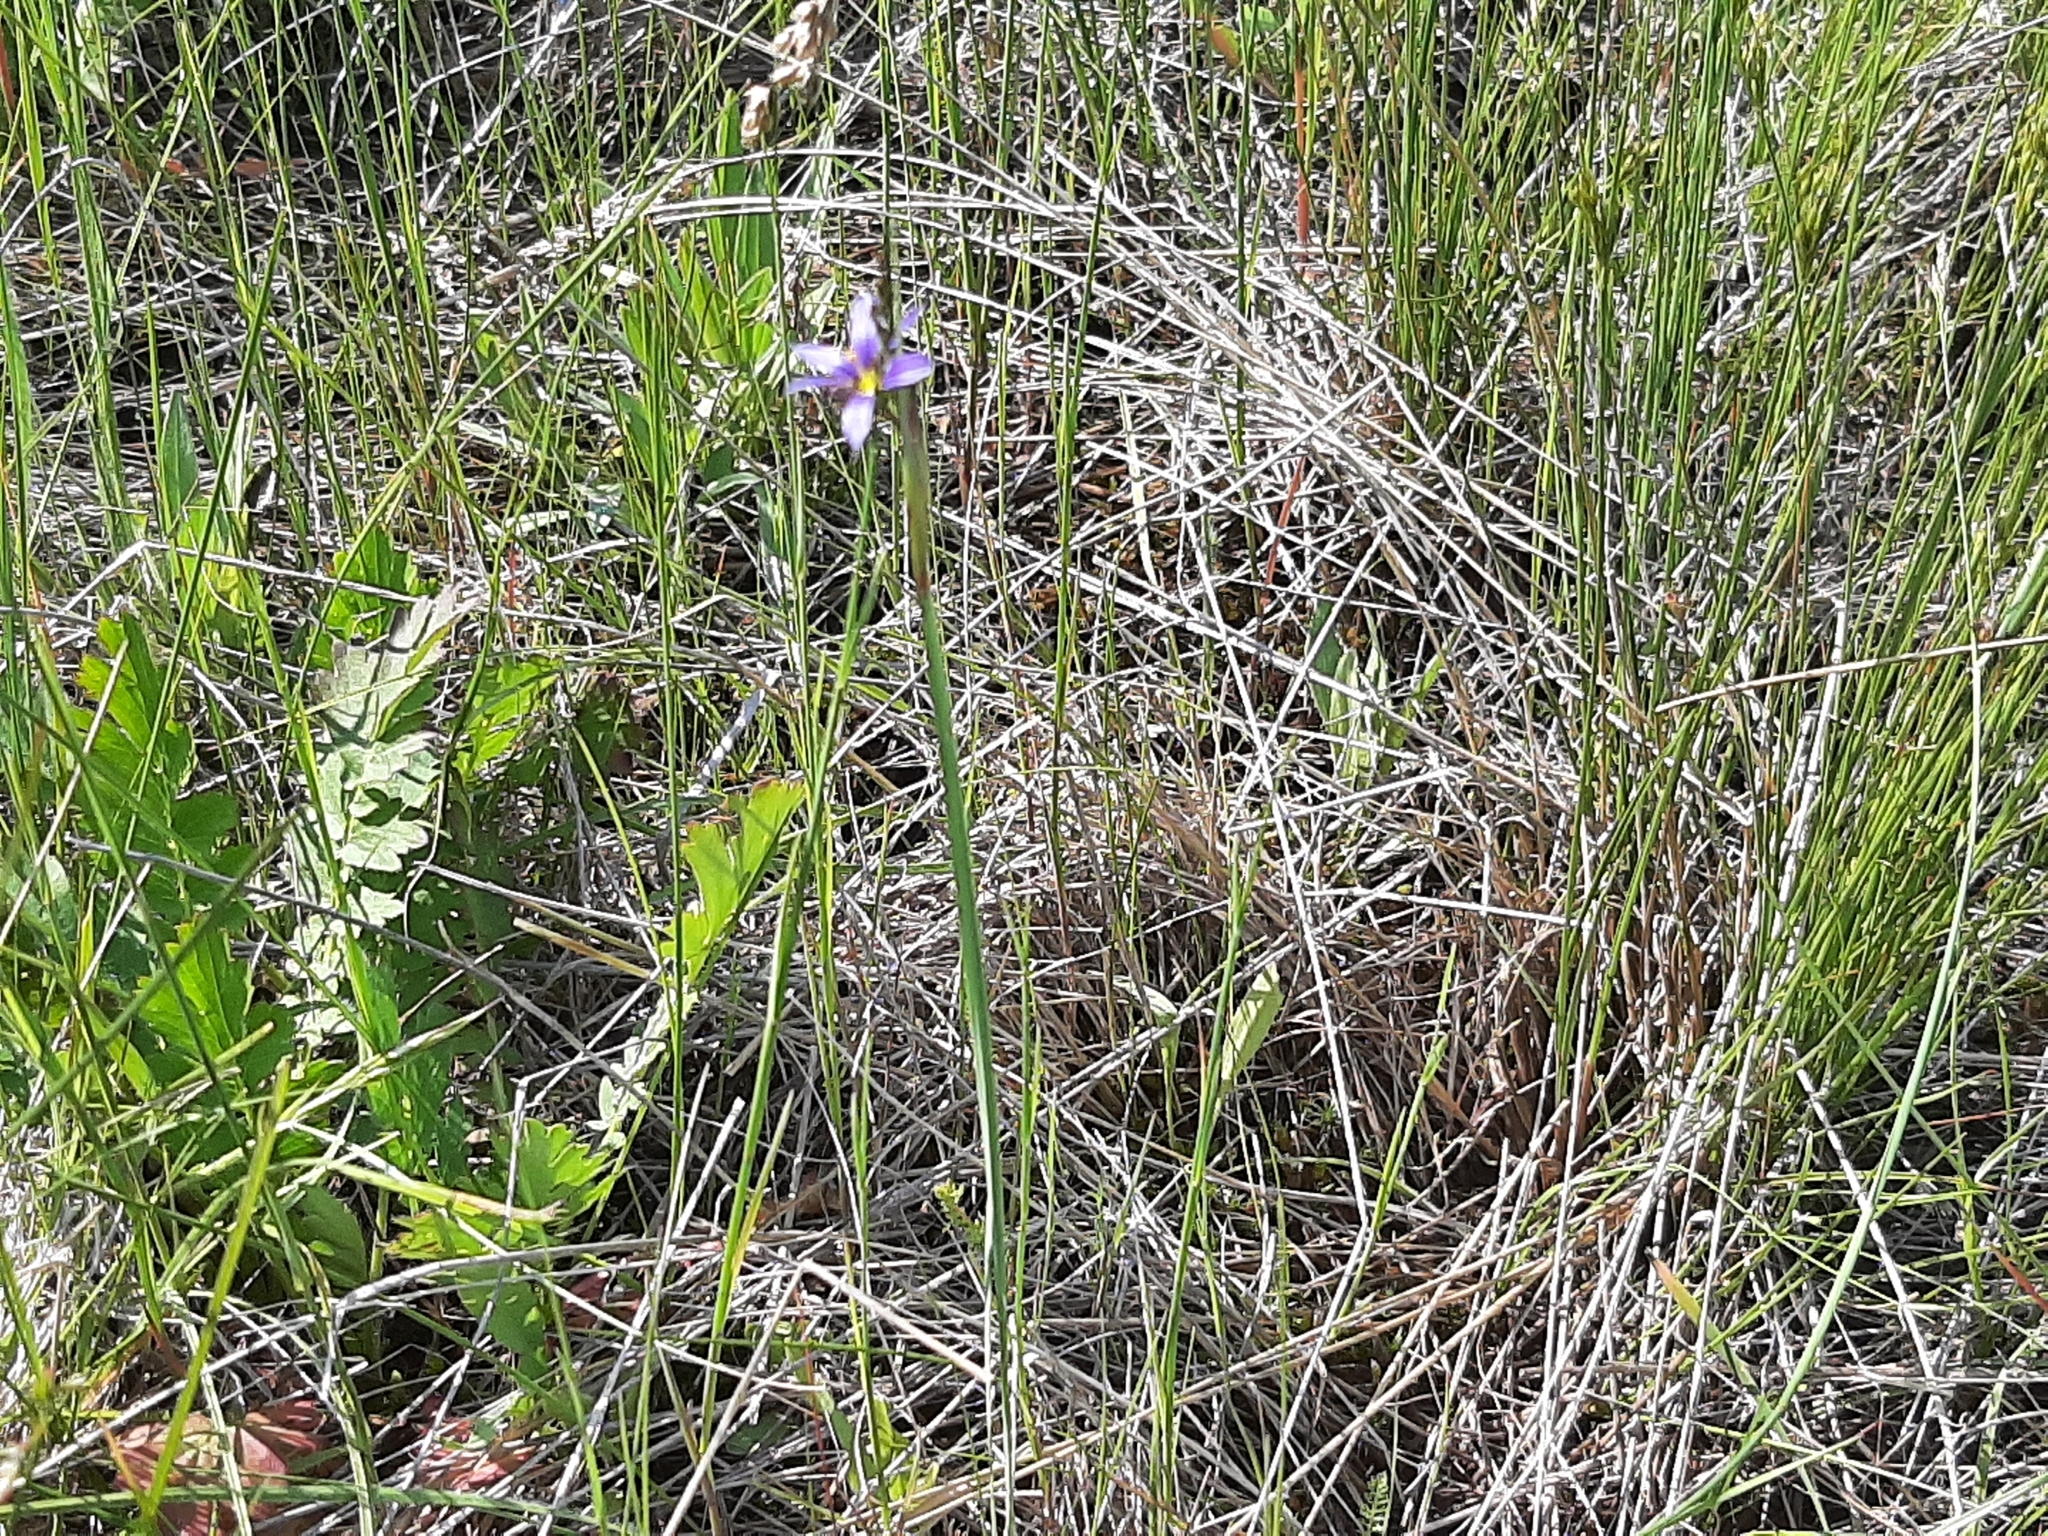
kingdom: Plantae
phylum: Tracheophyta
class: Liliopsida
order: Asparagales
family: Iridaceae
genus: Sisyrinchium
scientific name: Sisyrinchium montanum
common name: American blue-eyed-grass
